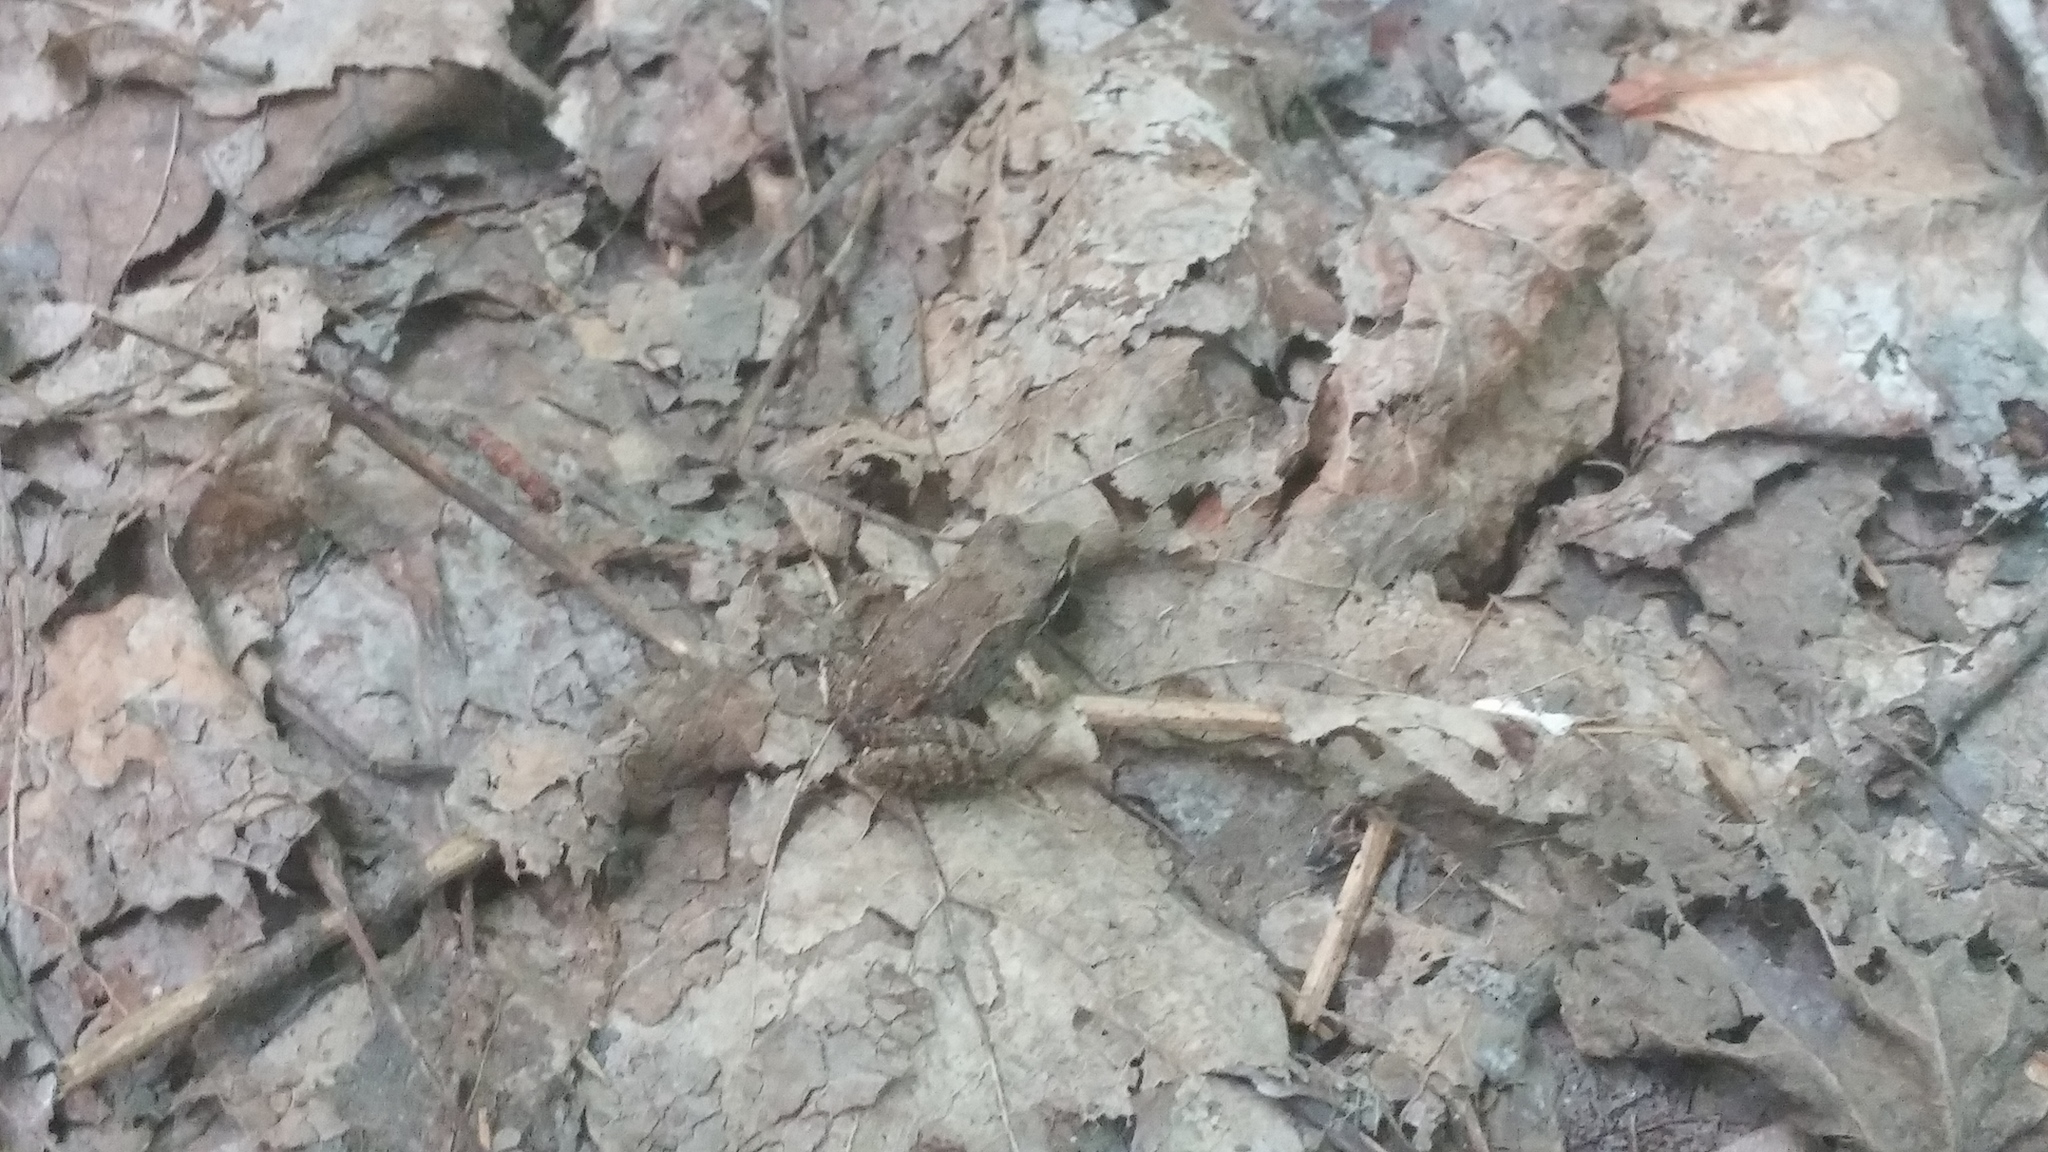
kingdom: Animalia
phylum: Chordata
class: Amphibia
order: Anura
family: Ranidae
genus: Lithobates
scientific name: Lithobates sylvaticus
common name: Wood frog
